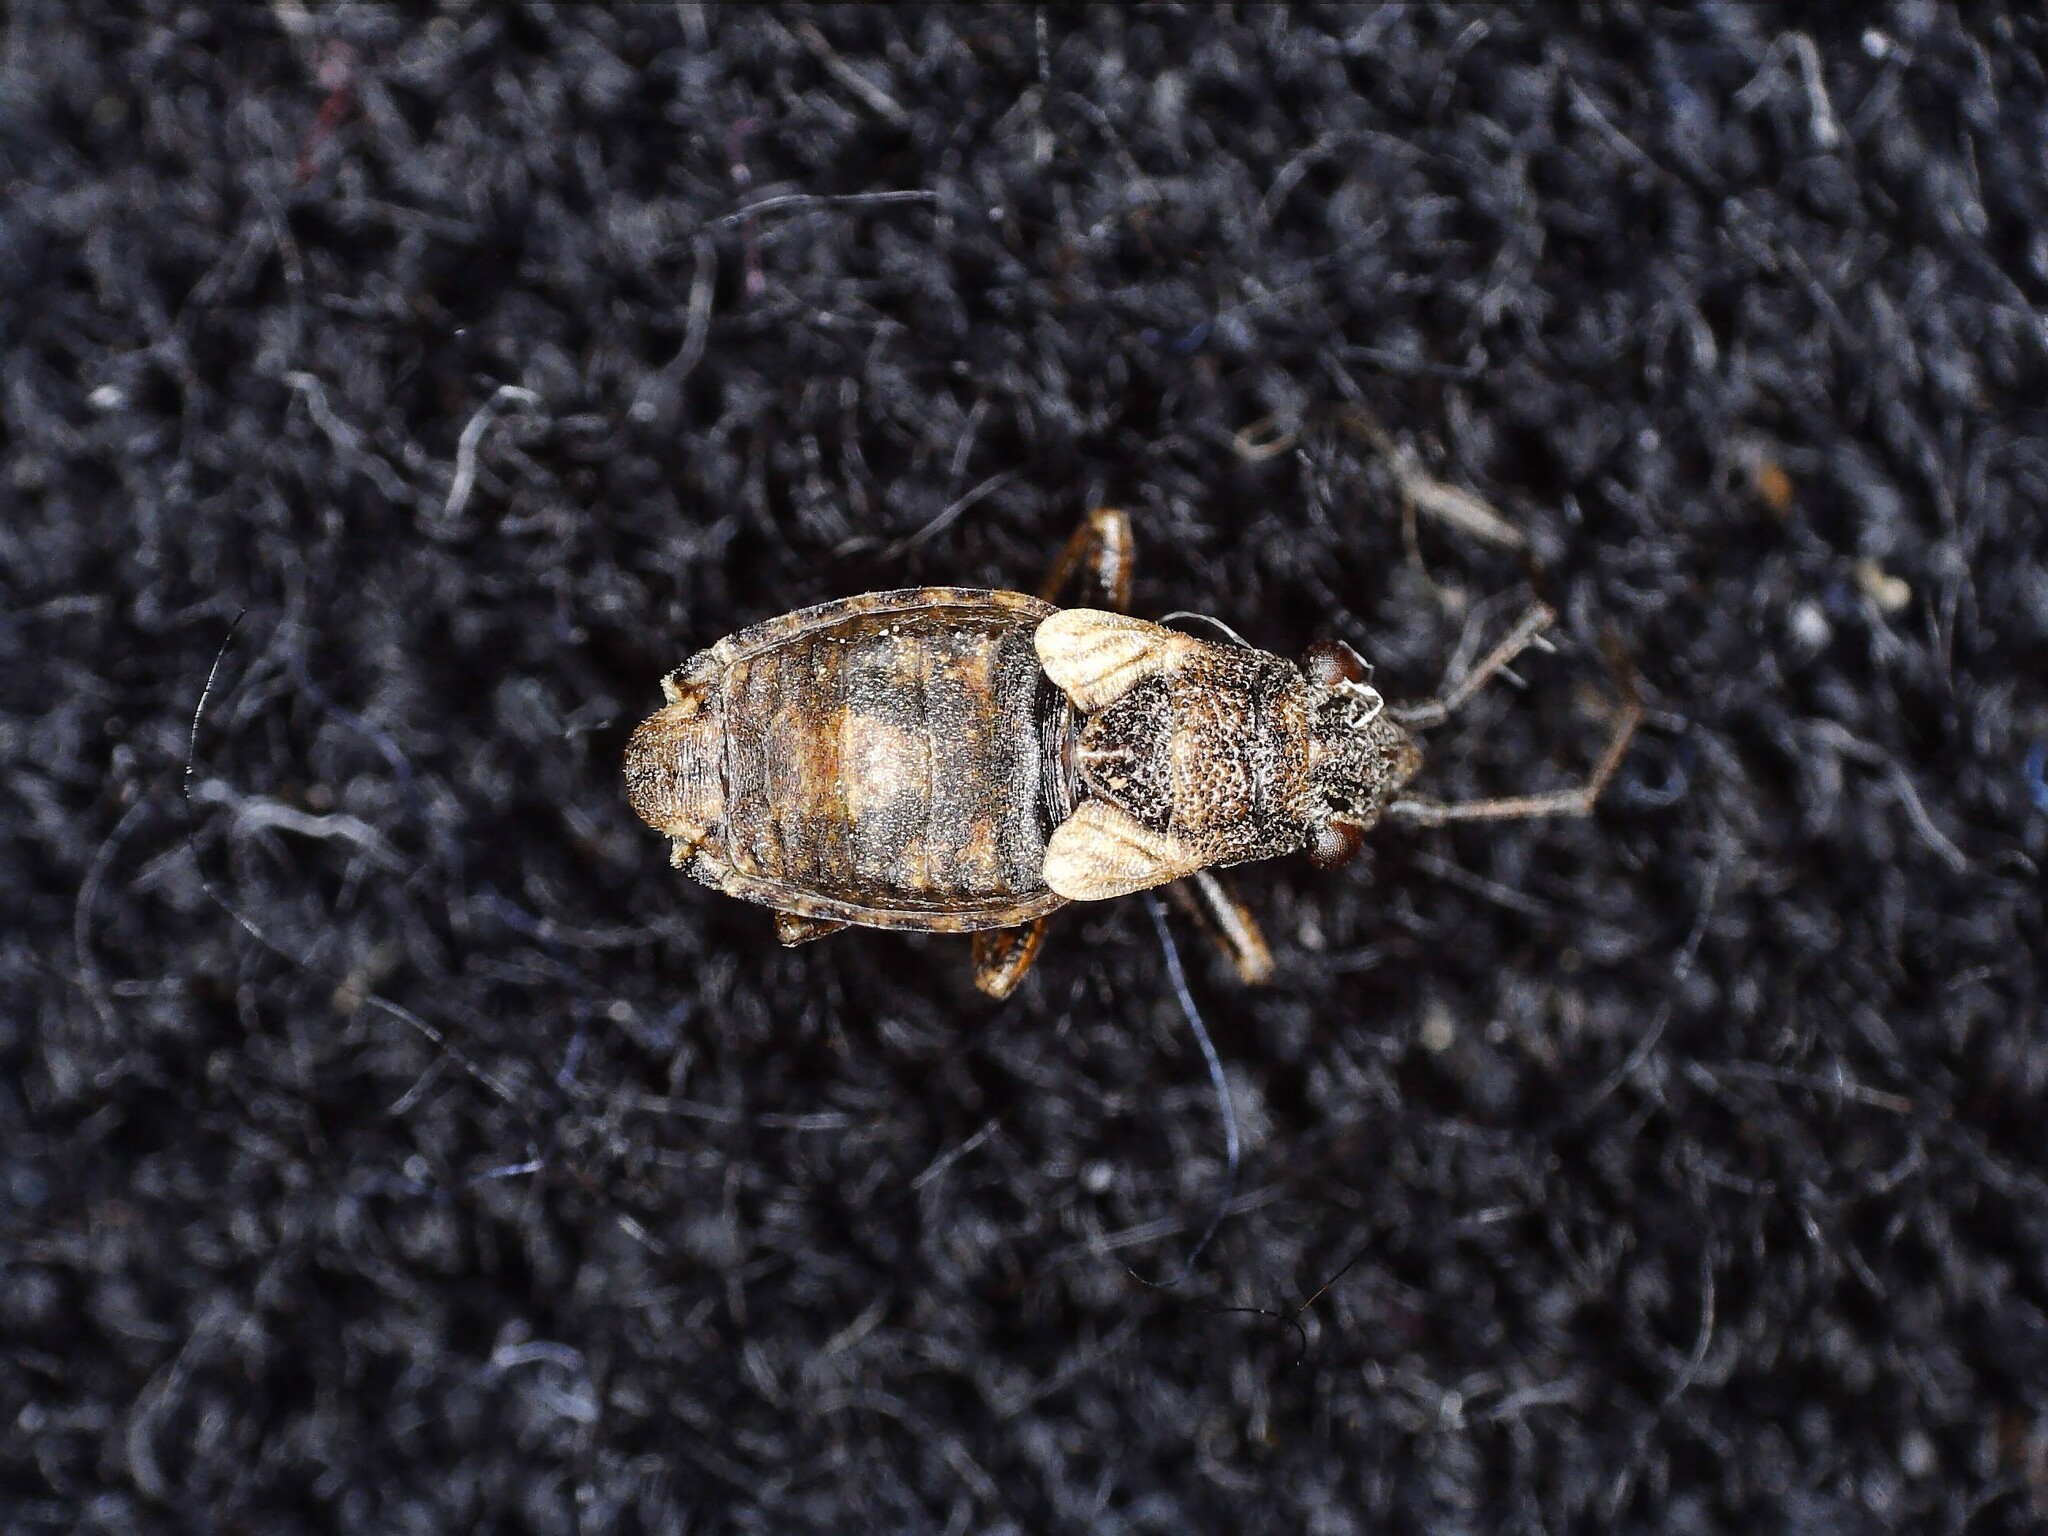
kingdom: Animalia
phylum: Arthropoda
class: Insecta
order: Hemiptera
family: Lygaeidae
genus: Nithecus
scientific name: Nithecus jacobaeae
